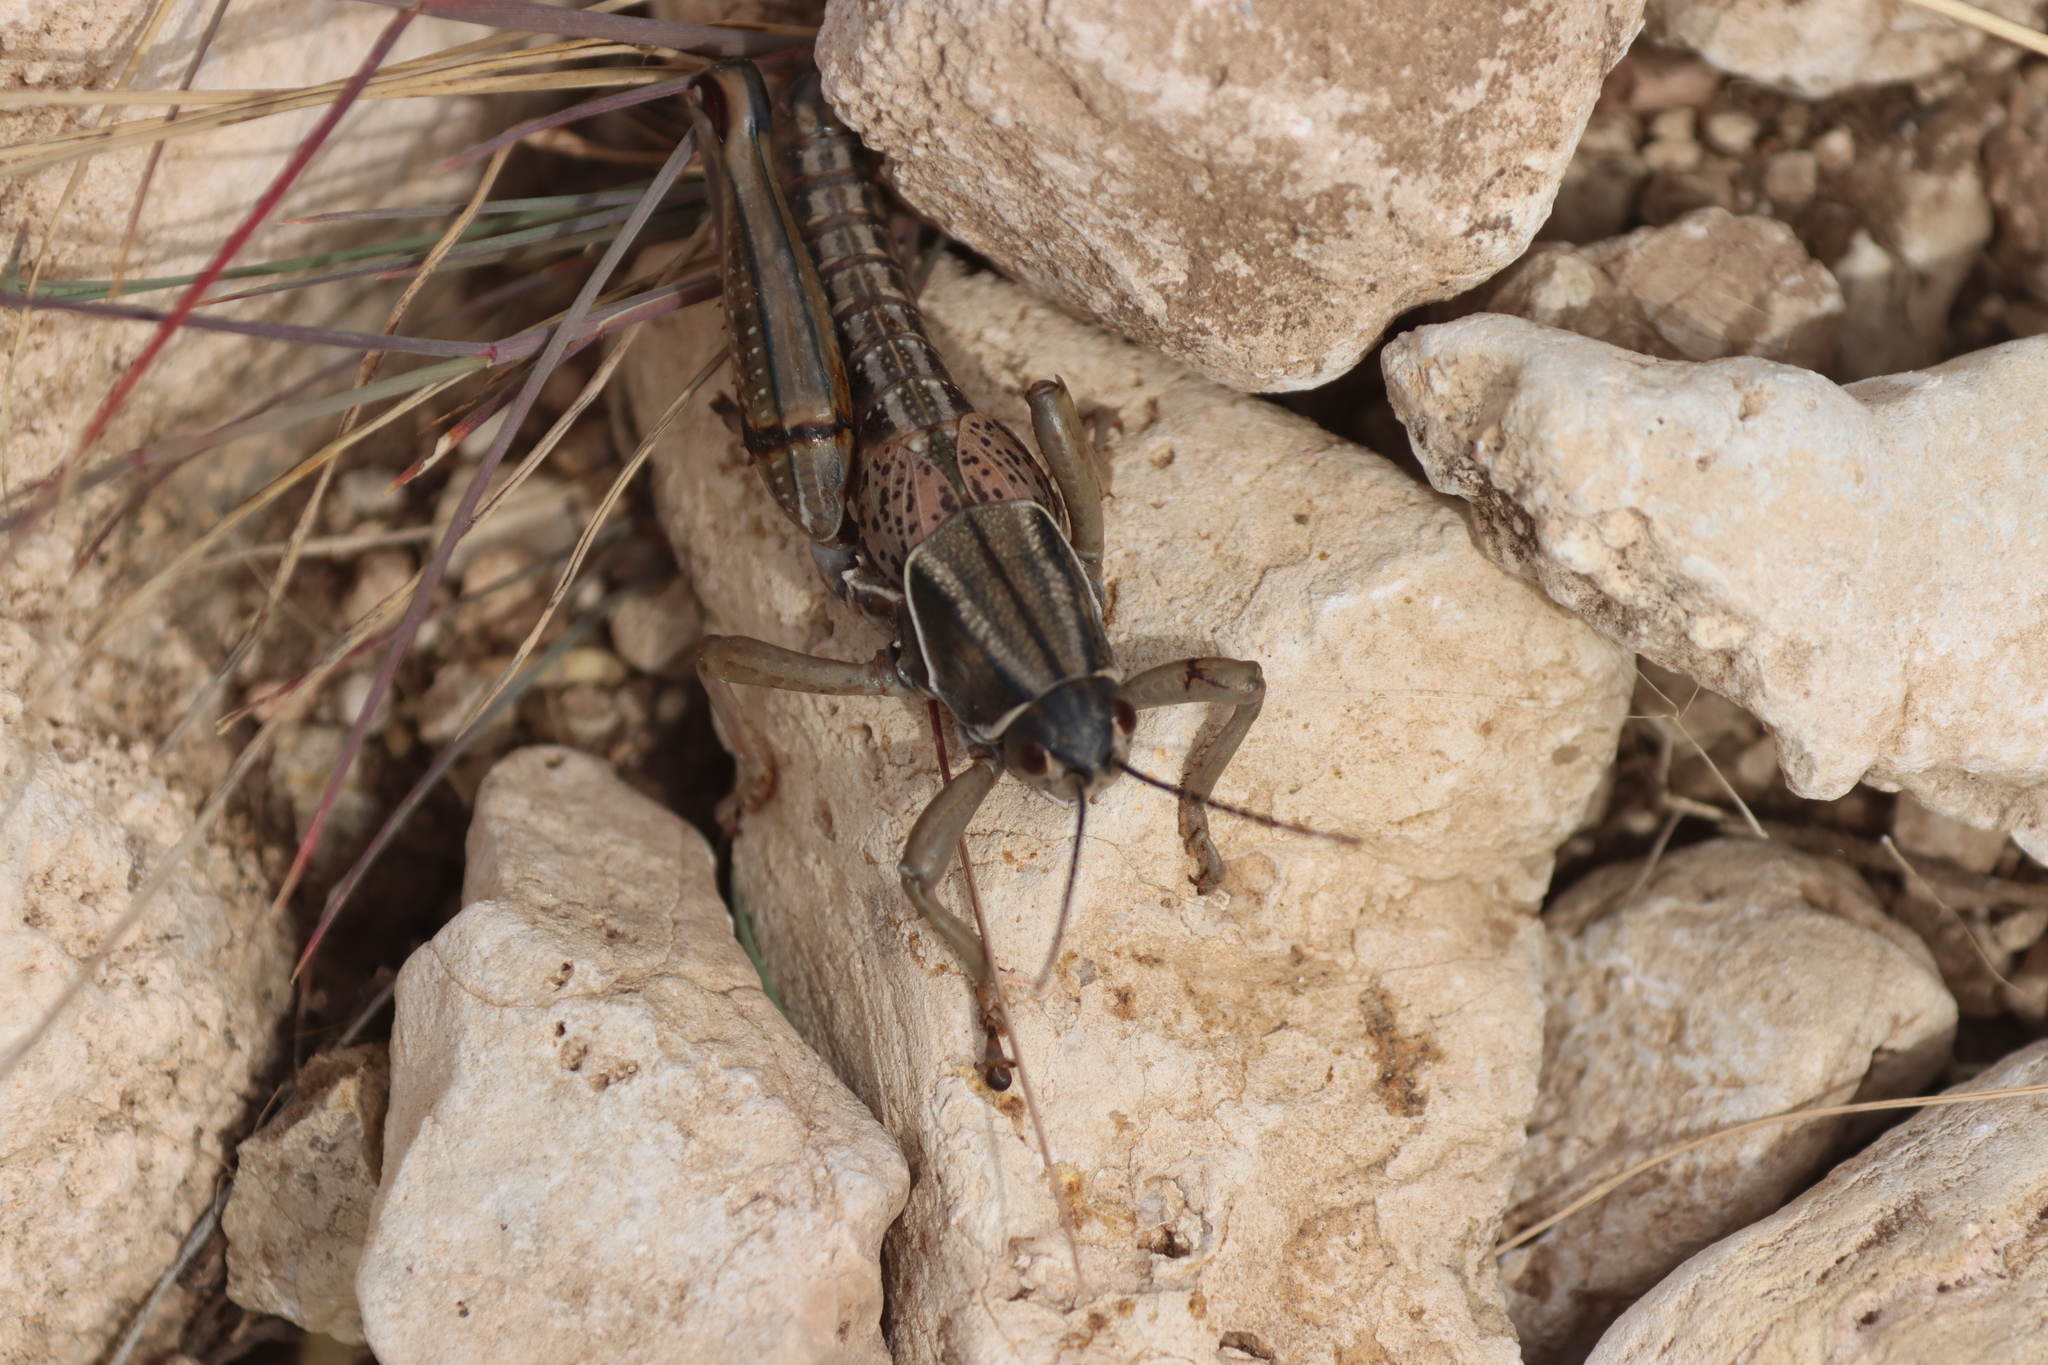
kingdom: Animalia
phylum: Arthropoda
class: Insecta
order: Orthoptera
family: Romaleidae
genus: Brachystola
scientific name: Brachystola magna
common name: Plains lubber grasshopper
